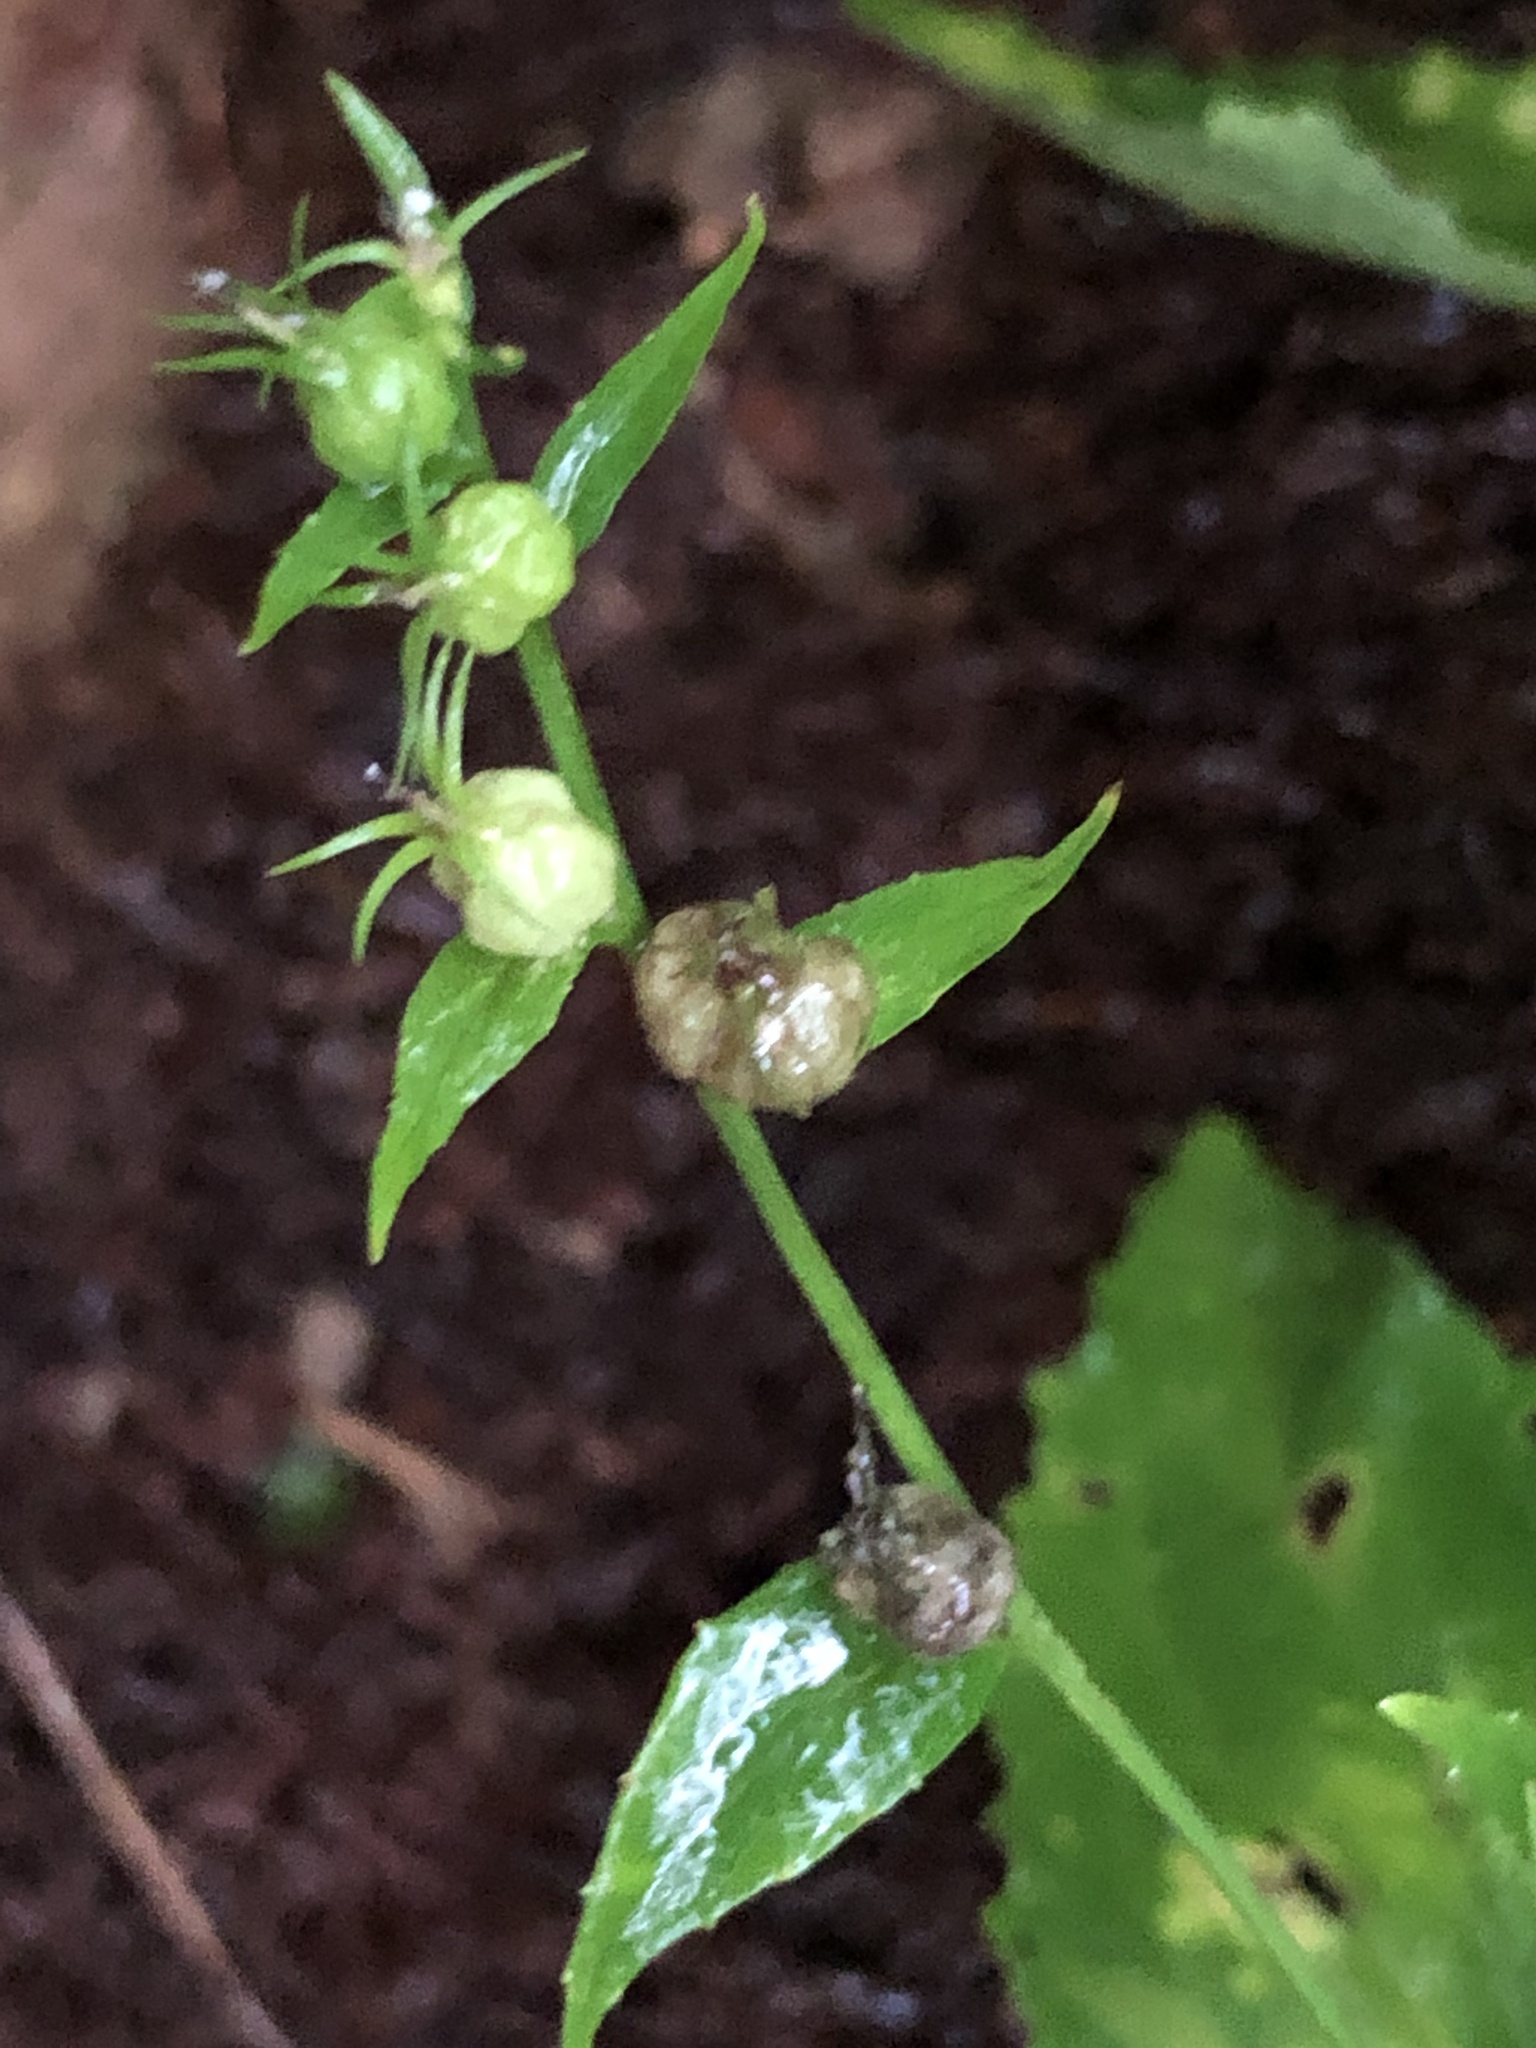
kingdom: Plantae
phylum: Tracheophyta
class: Magnoliopsida
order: Asterales
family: Campanulaceae
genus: Lobelia
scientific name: Lobelia inflata
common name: Indian tobacco
